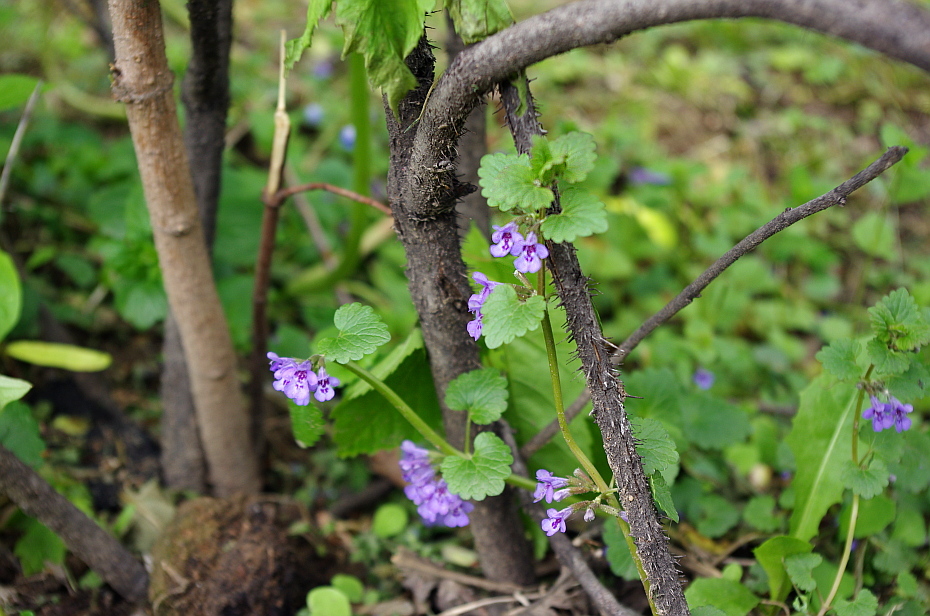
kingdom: Plantae
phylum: Tracheophyta
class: Magnoliopsida
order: Lamiales
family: Lamiaceae
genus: Glechoma
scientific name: Glechoma hederacea
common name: Ground ivy
